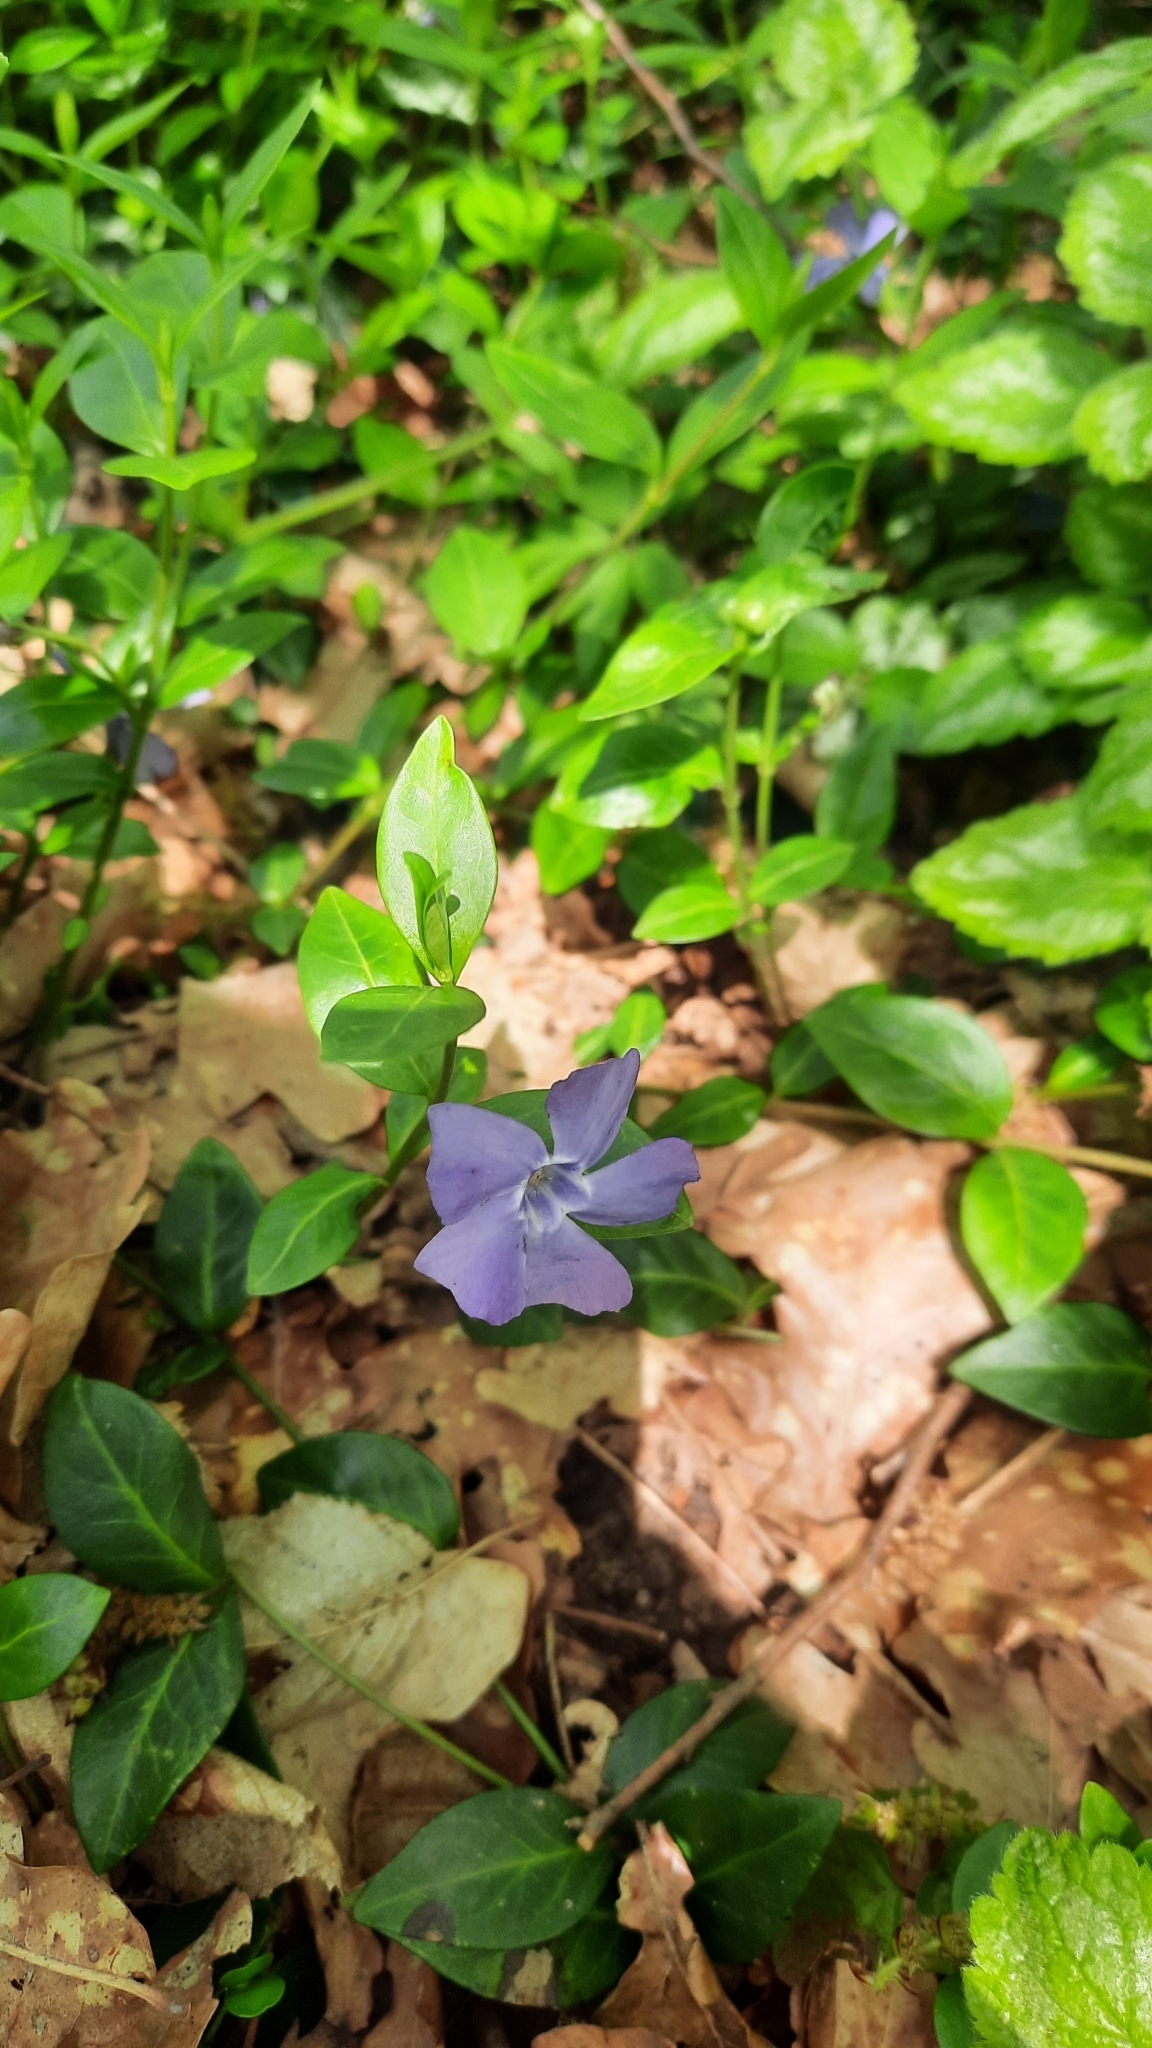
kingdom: Plantae
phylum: Tracheophyta
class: Magnoliopsida
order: Gentianales
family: Apocynaceae
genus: Vinca
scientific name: Vinca minor
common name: Lesser periwinkle
